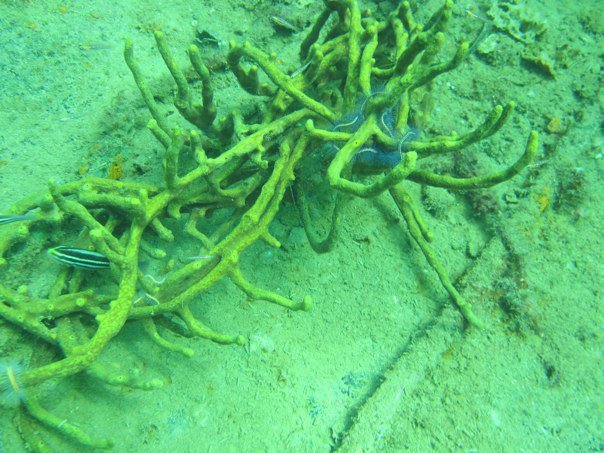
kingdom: Animalia
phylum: Chordata
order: Perciformes
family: Scaridae
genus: Scarus
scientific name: Scarus iseri
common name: Striped parrotfish
